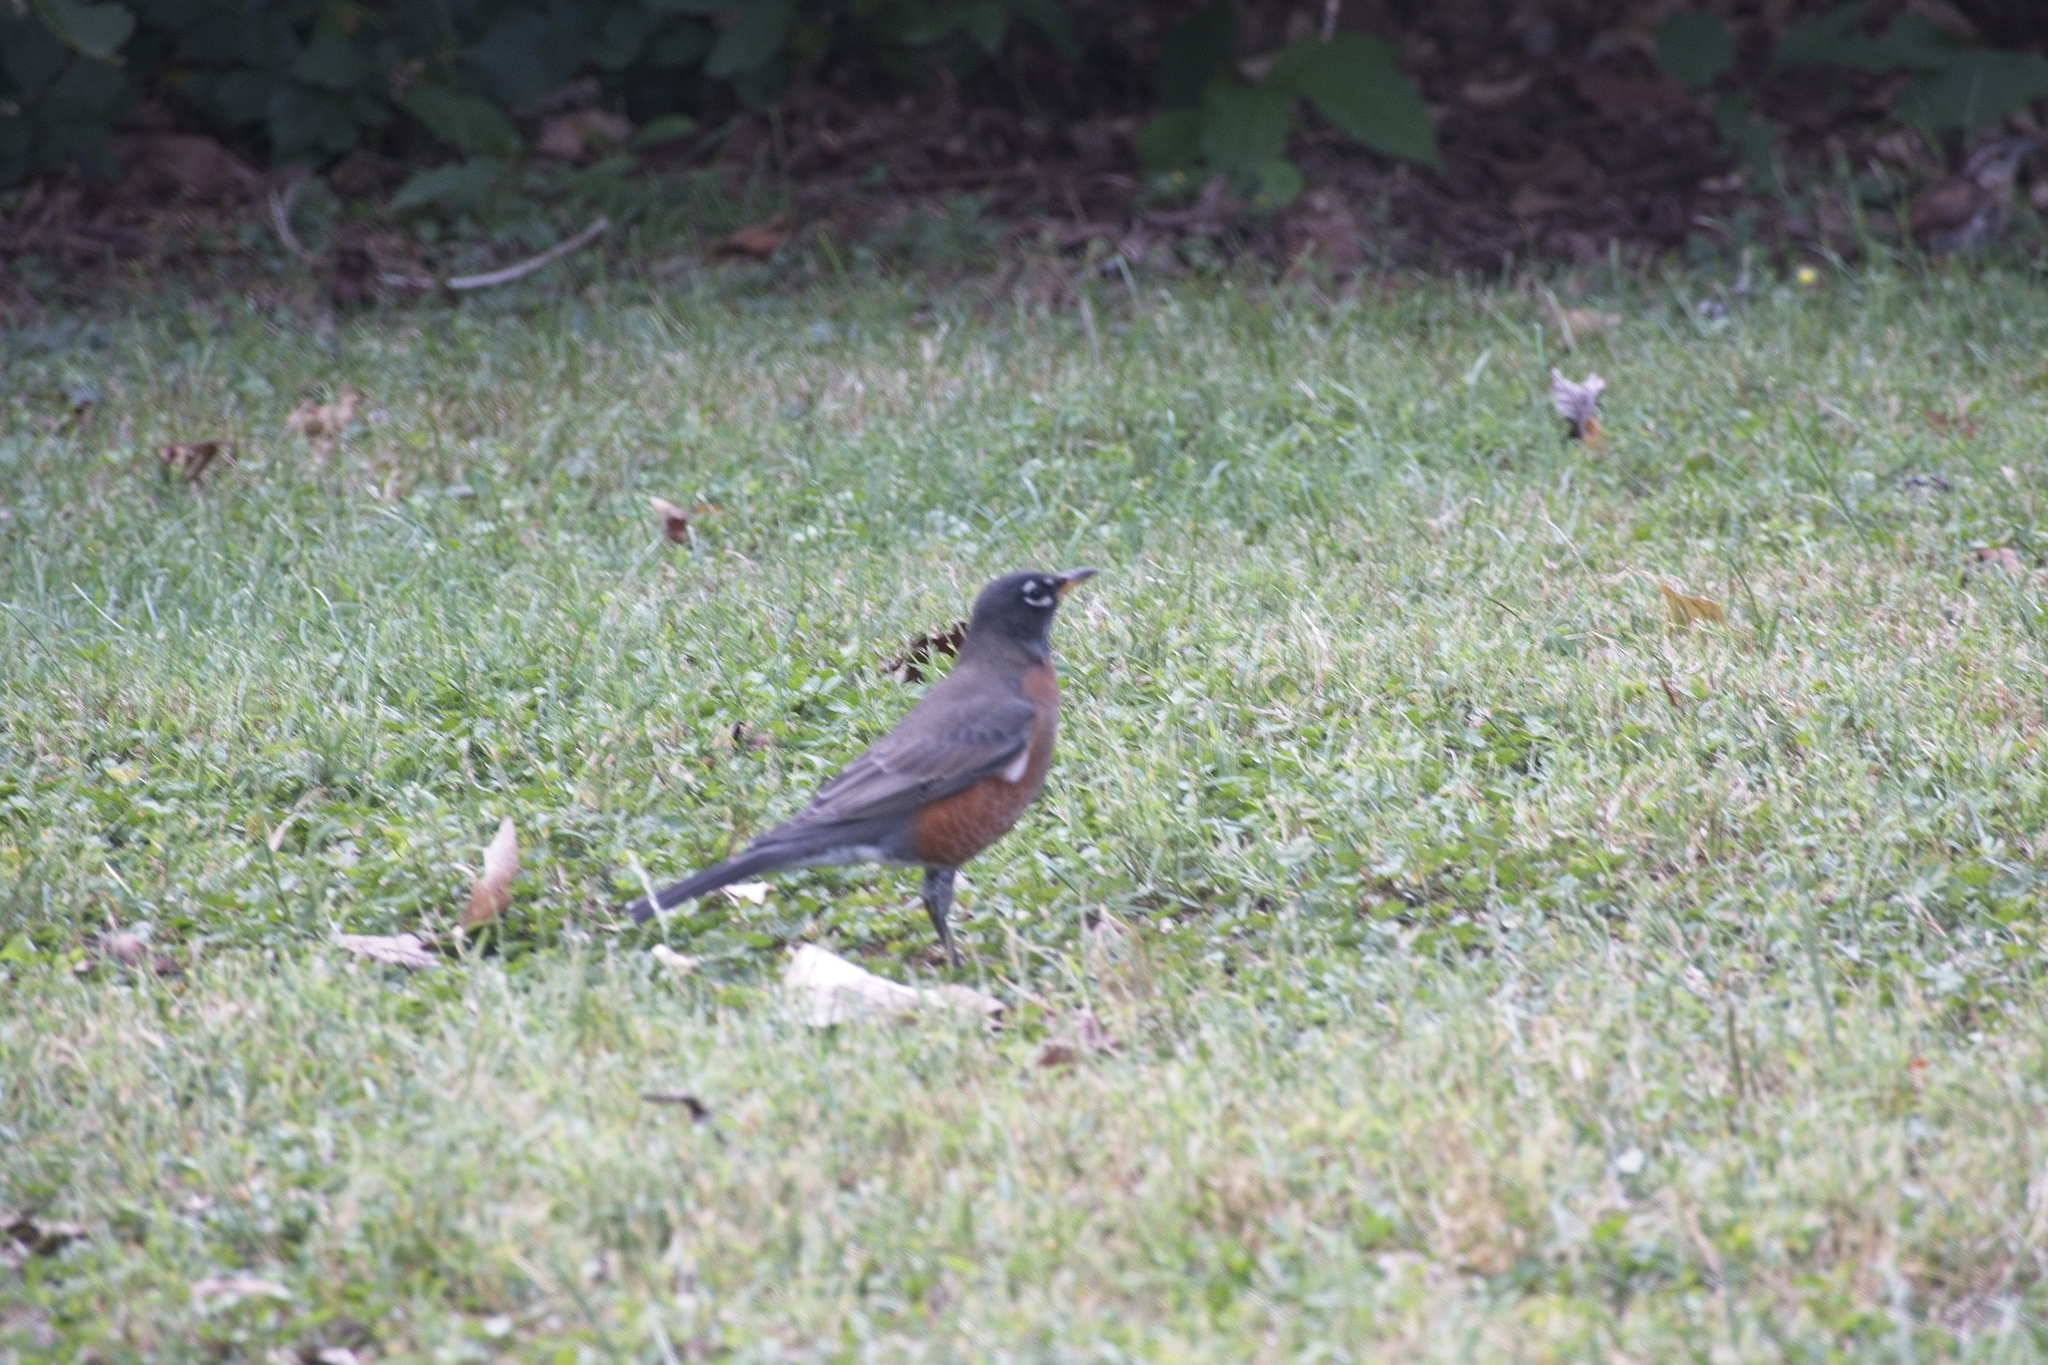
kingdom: Animalia
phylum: Chordata
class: Aves
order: Passeriformes
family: Turdidae
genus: Turdus
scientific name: Turdus migratorius
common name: American robin
